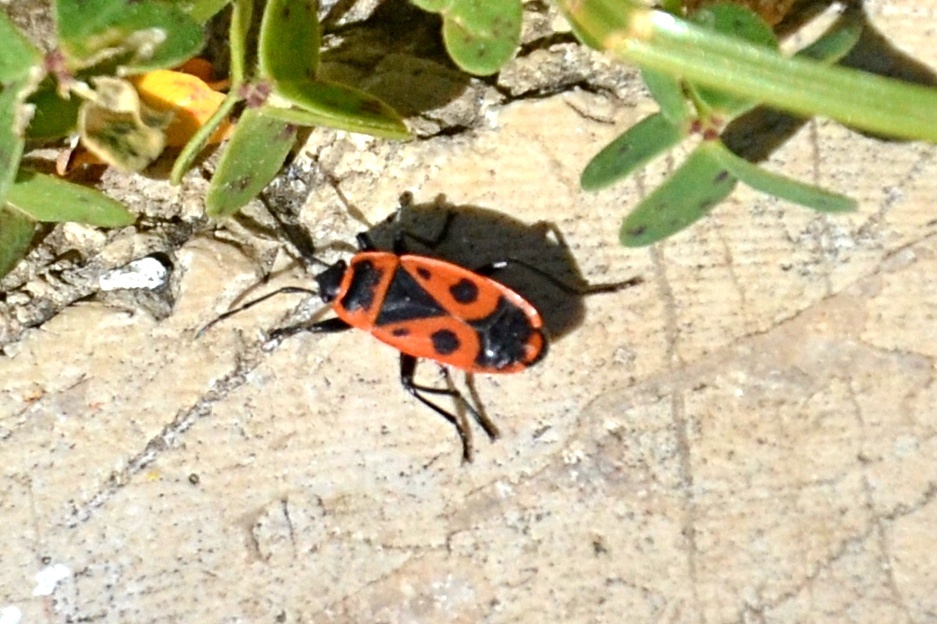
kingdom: Animalia
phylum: Arthropoda
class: Insecta
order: Hemiptera
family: Pyrrhocoridae
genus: Pyrrhocoris
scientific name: Pyrrhocoris apterus
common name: Firebug
